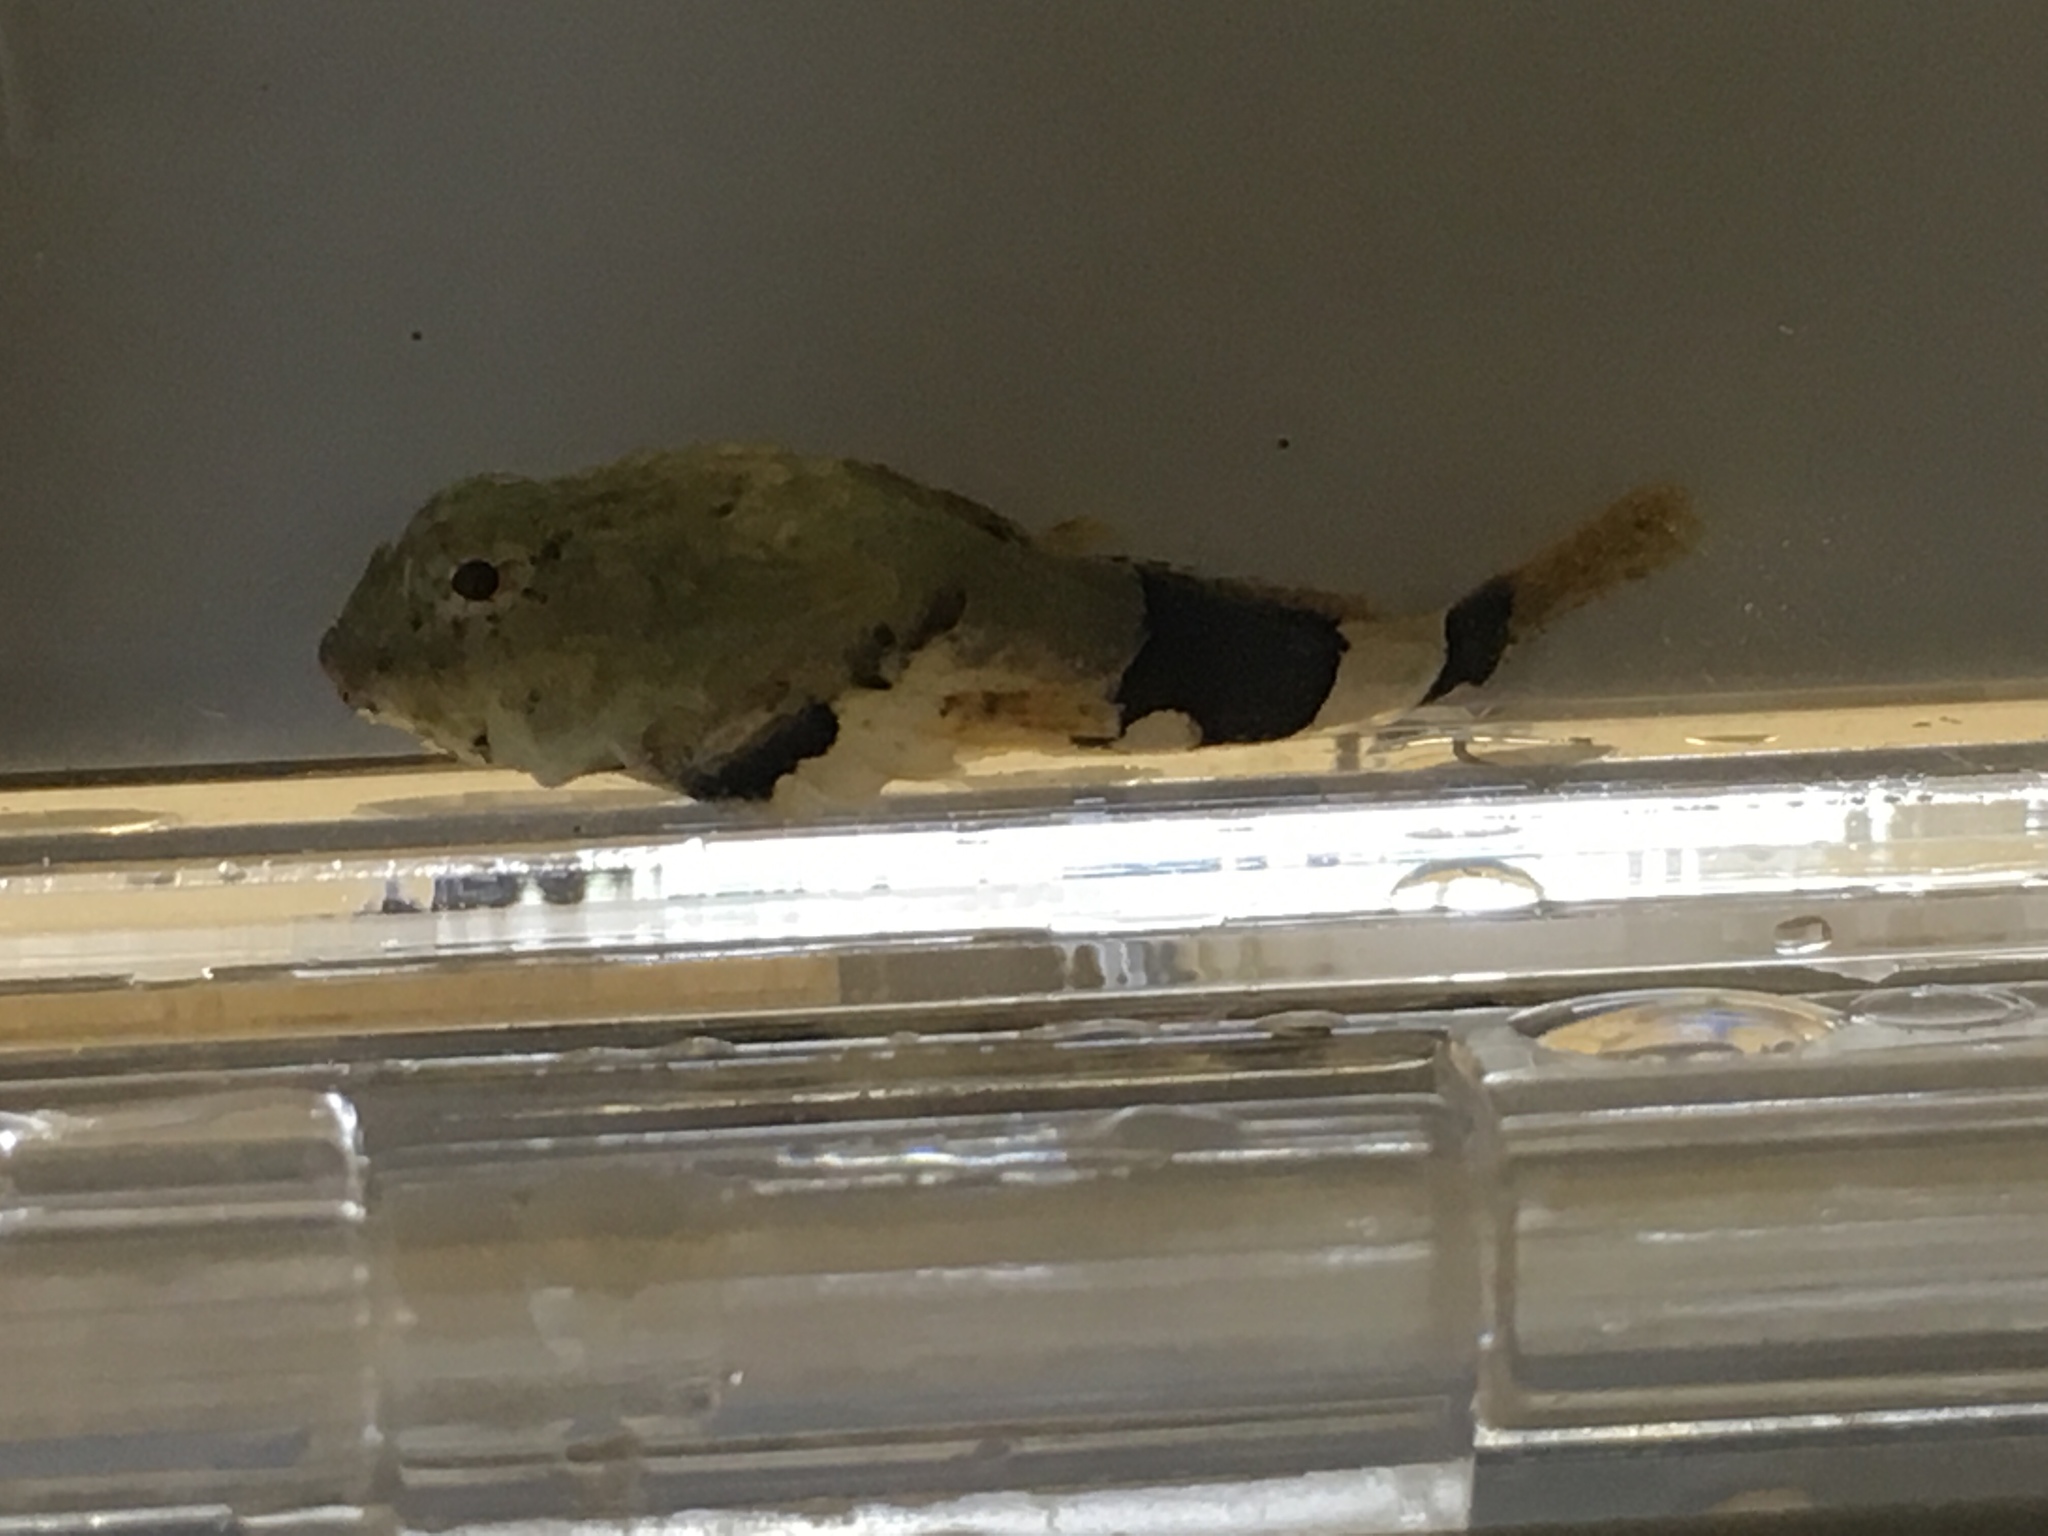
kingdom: Animalia
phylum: Chordata
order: Scorpaeniformes
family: Cottidae
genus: Enophrys
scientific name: Enophrys bison
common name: Buffalo sculpin
